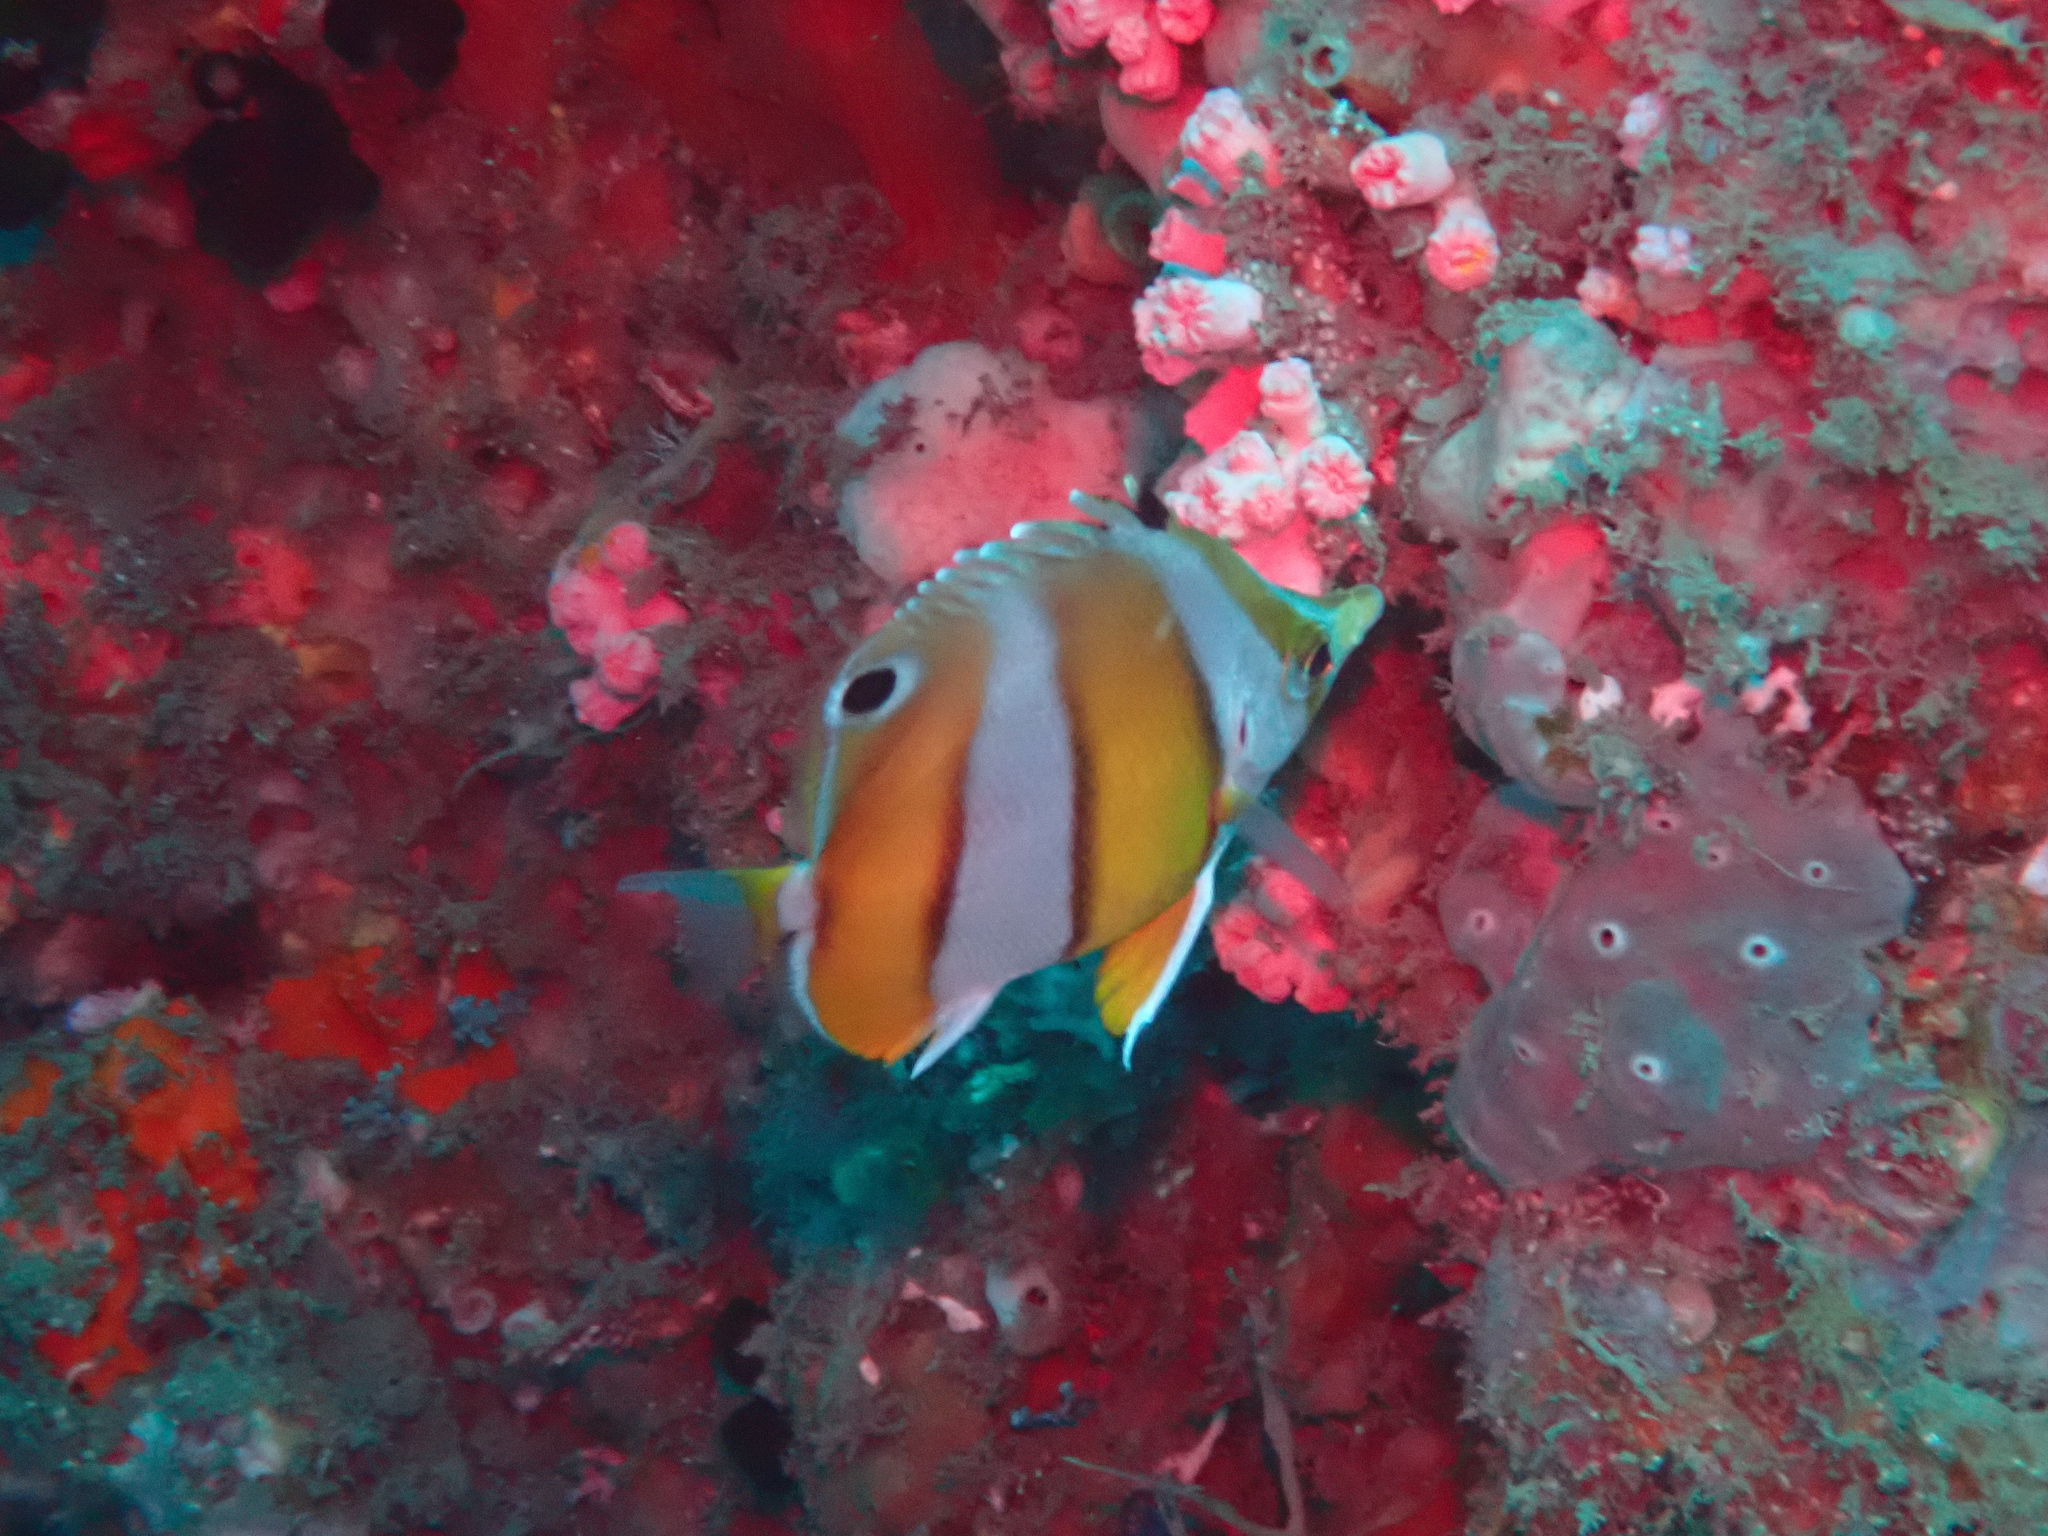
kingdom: Animalia
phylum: Chordata
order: Perciformes
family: Chaetodontidae
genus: Roa
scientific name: Roa modesta
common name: Brown-banded butterflyfish
